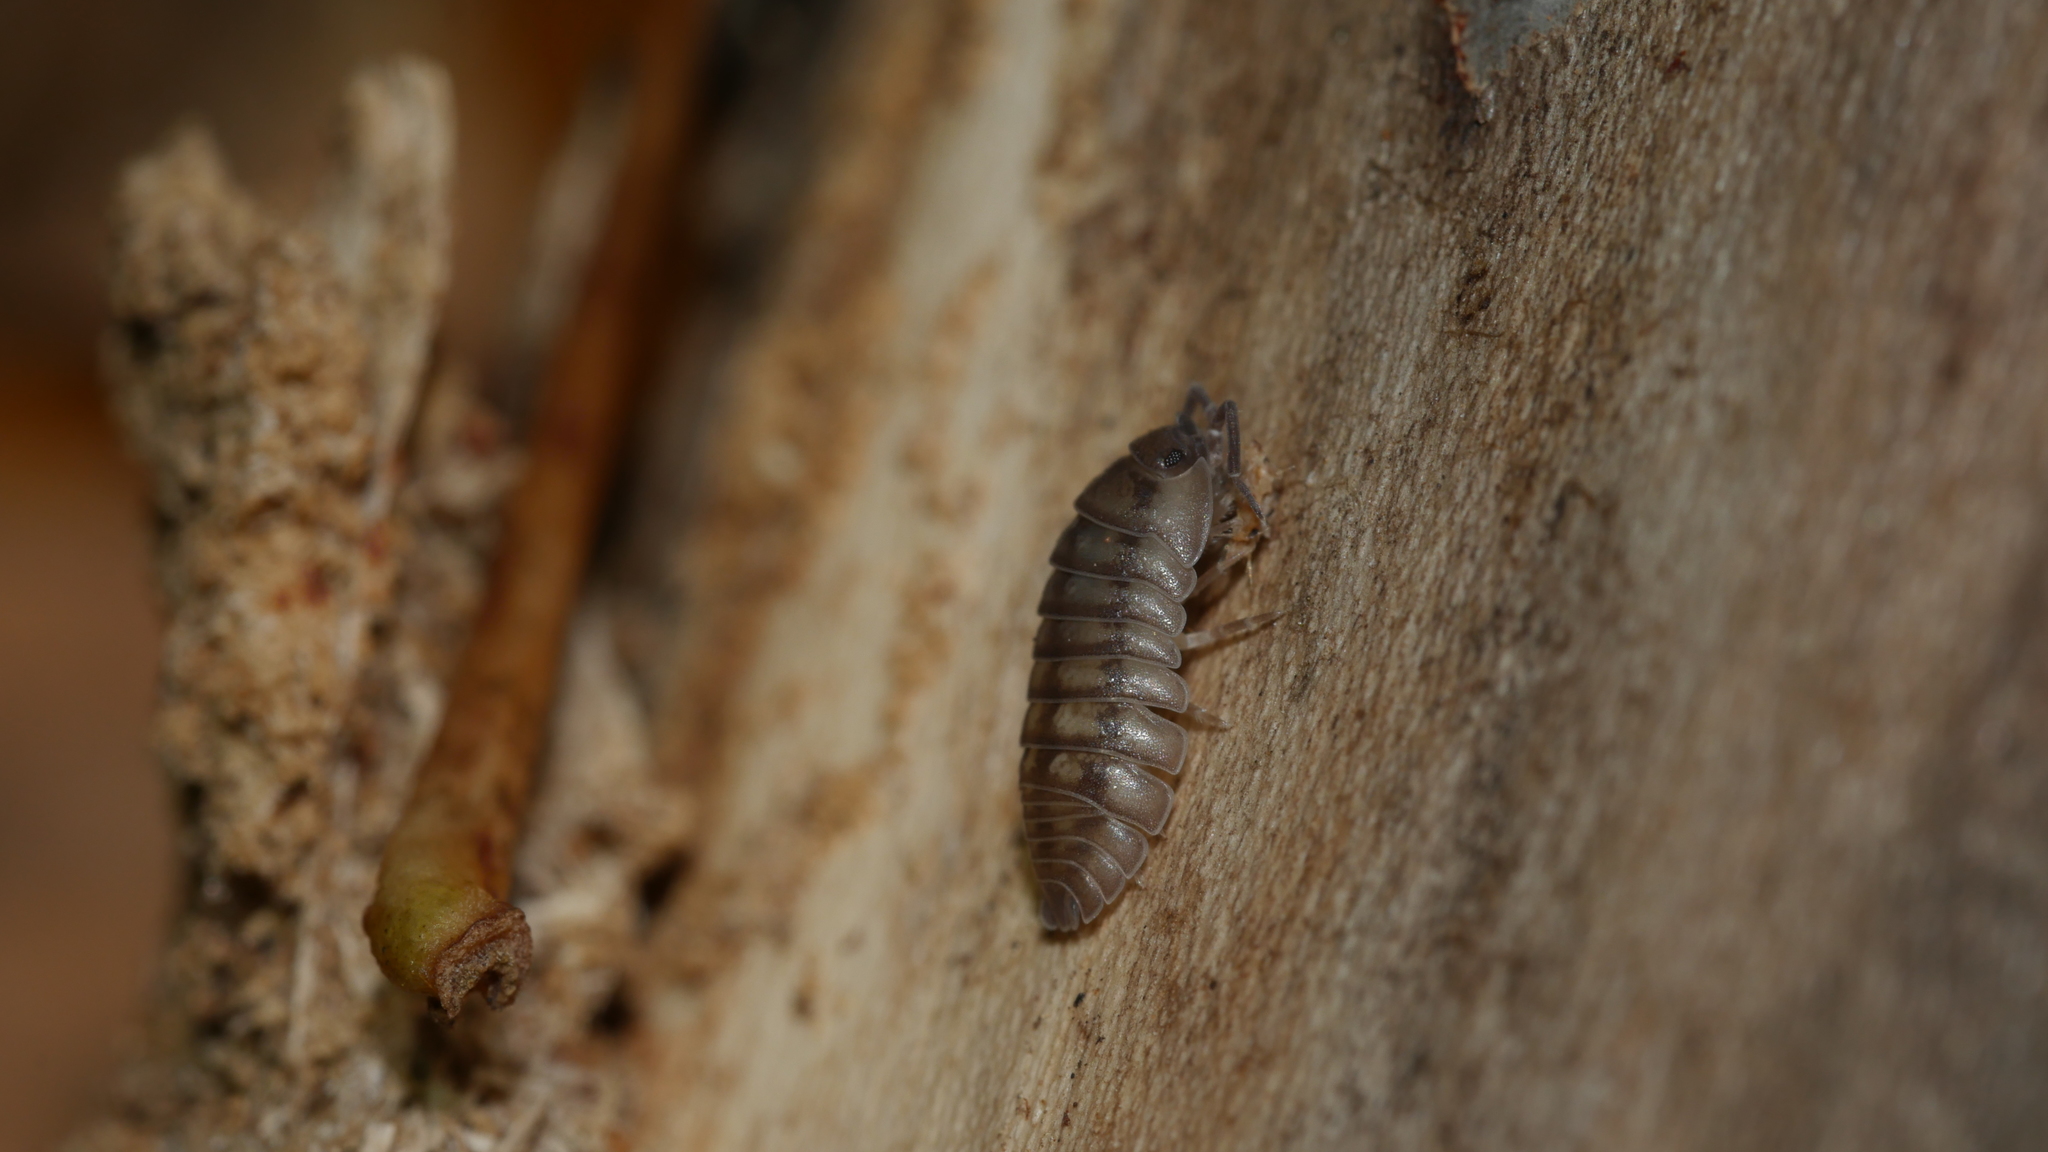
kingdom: Animalia
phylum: Arthropoda
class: Malacostraca
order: Isopoda
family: Armadillidiidae
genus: Armadillidium
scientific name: Armadillidium nasatum
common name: Isopod
